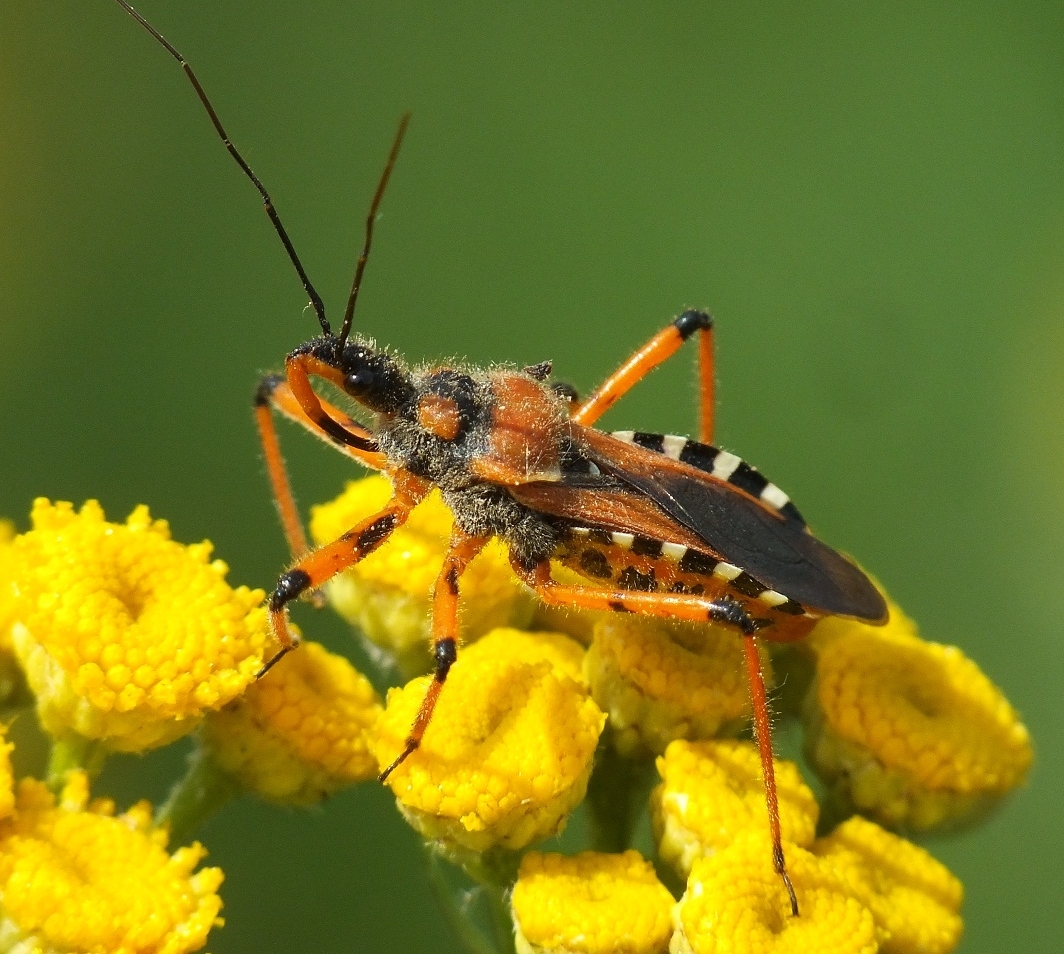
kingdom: Animalia
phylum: Arthropoda
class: Insecta
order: Hemiptera
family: Reduviidae
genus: Rhynocoris
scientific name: Rhynocoris iracundus
